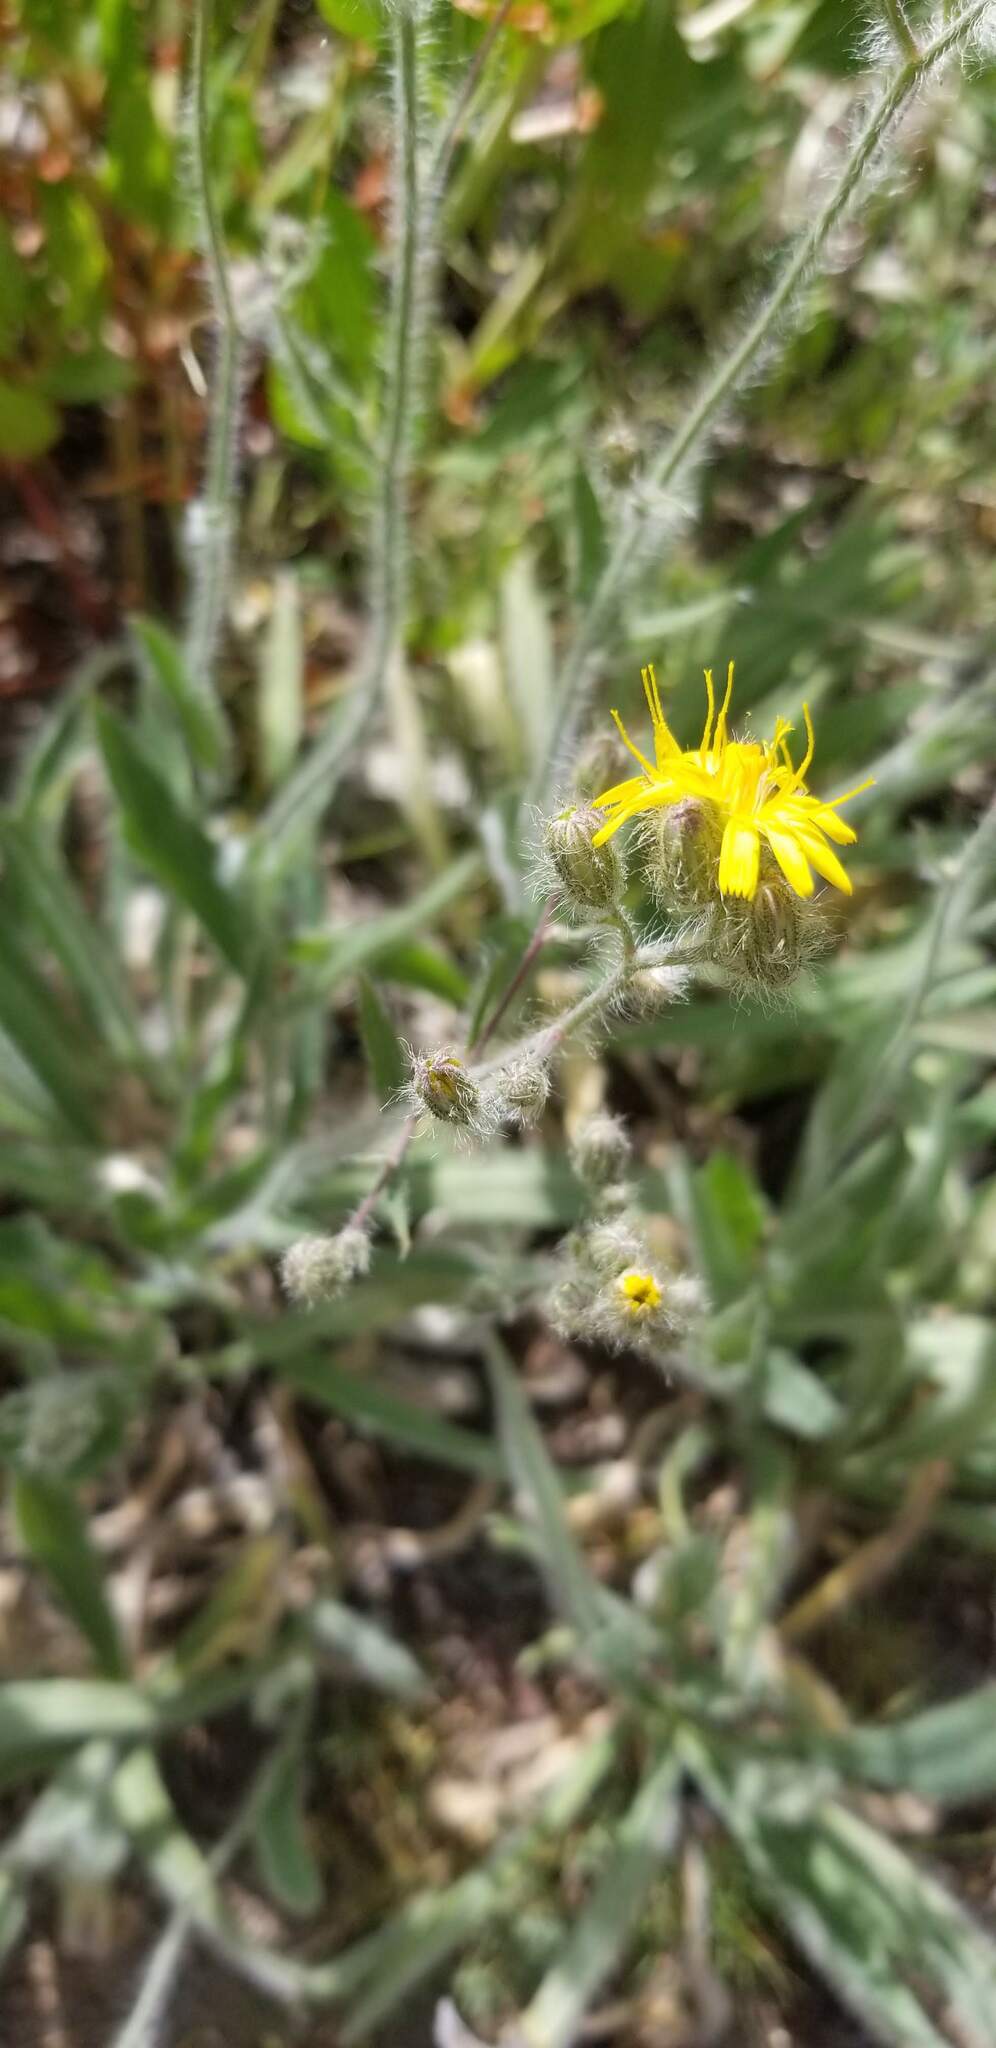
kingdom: Plantae
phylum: Tracheophyta
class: Magnoliopsida
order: Asterales
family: Asteraceae
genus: Hieracium
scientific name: Hieracium scouleri
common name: Hound's-tongue hawkweed
